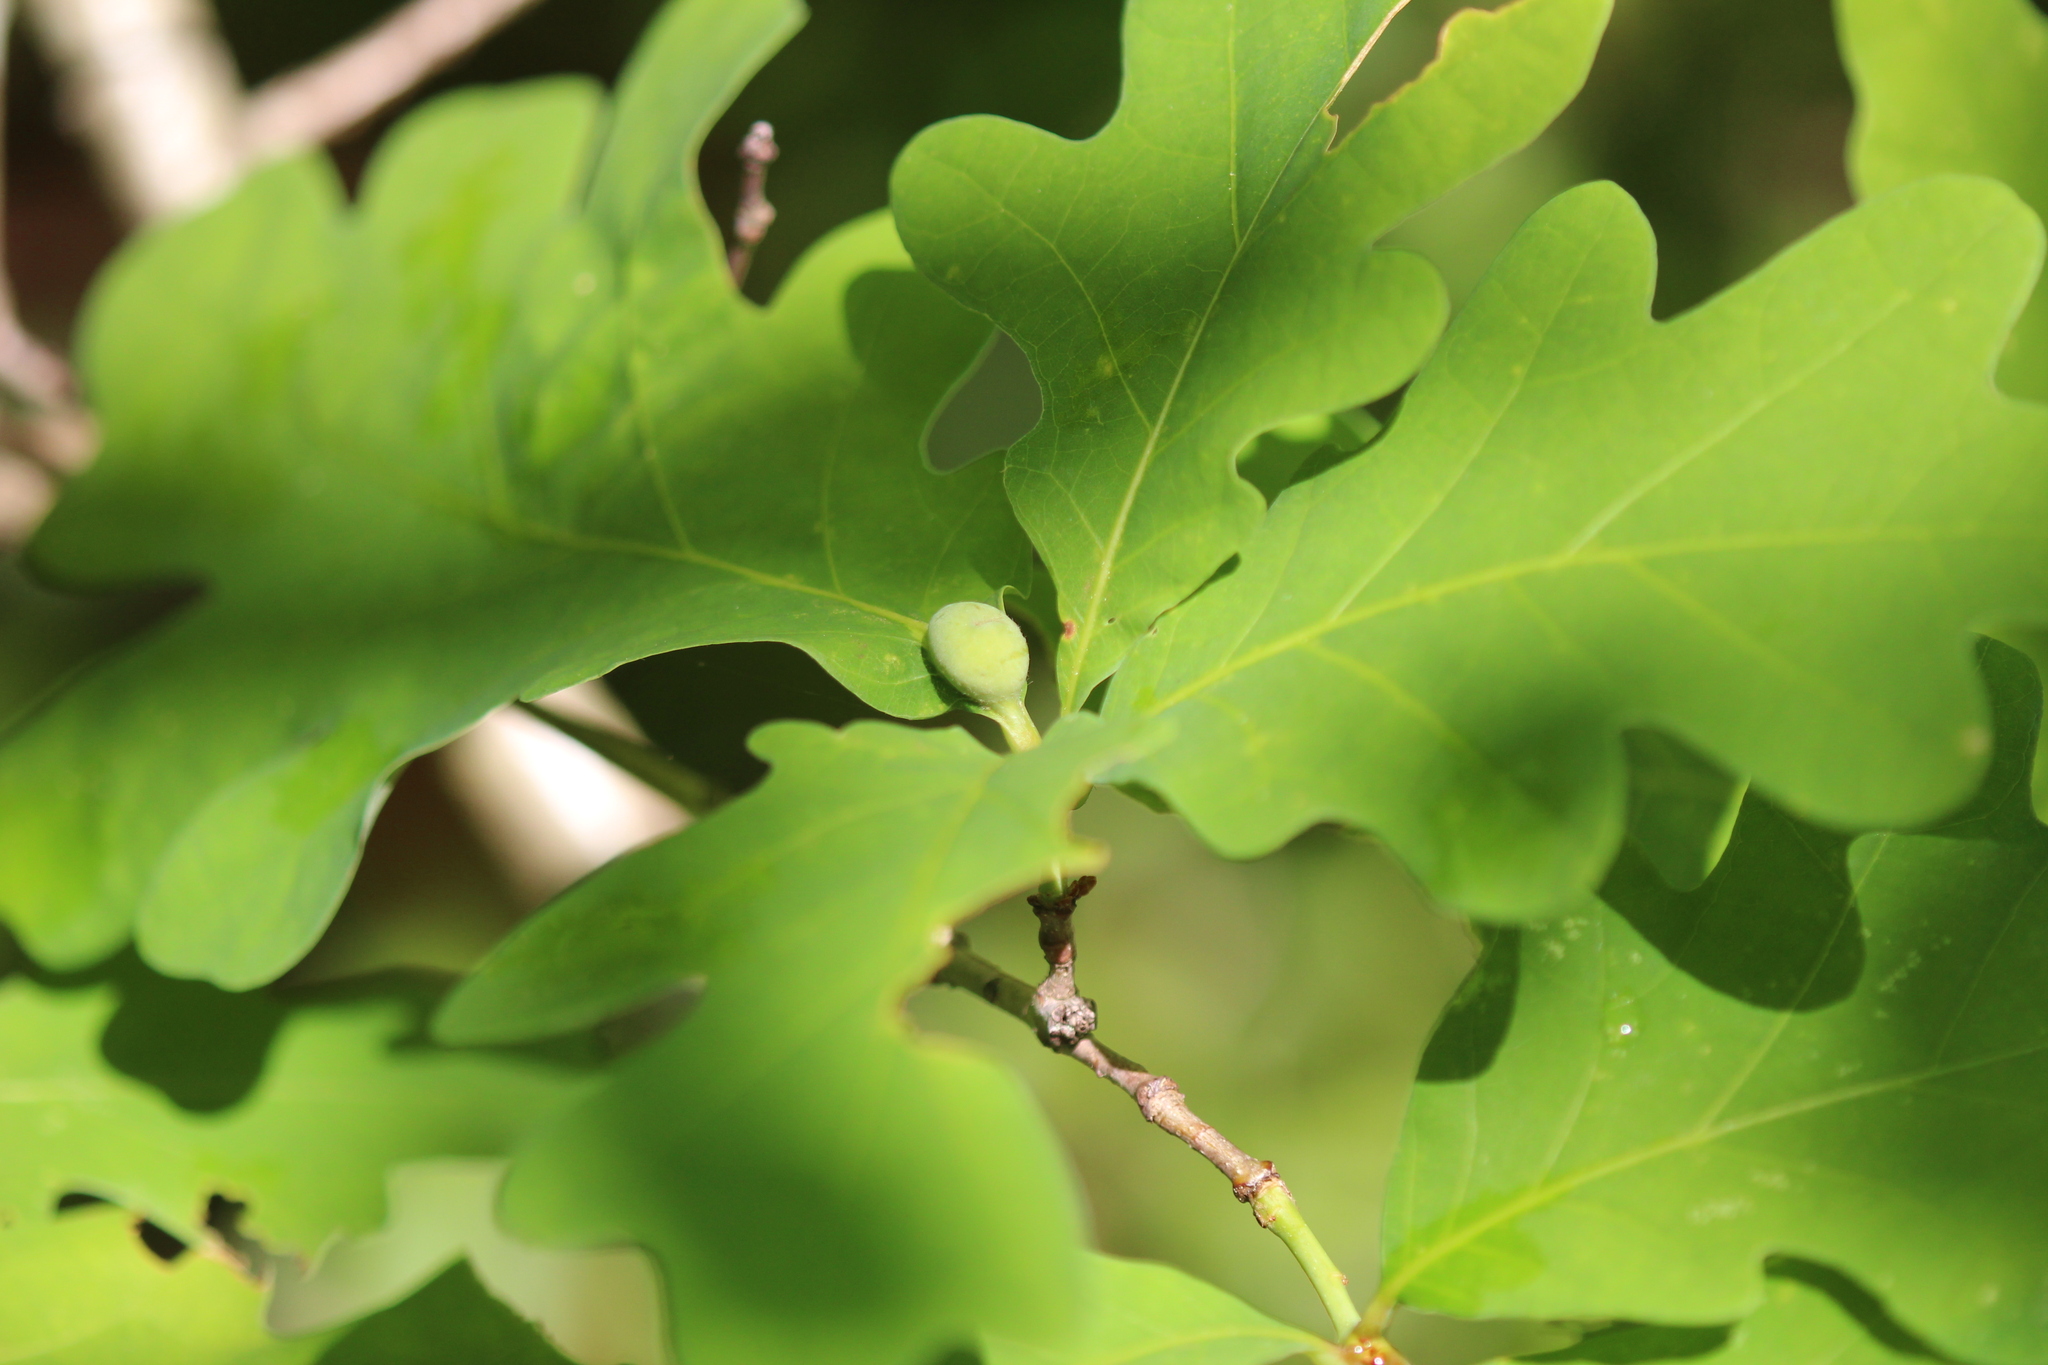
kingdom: Plantae
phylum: Tracheophyta
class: Magnoliopsida
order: Fagales
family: Fagaceae
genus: Quercus
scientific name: Quercus alba
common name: White oak
